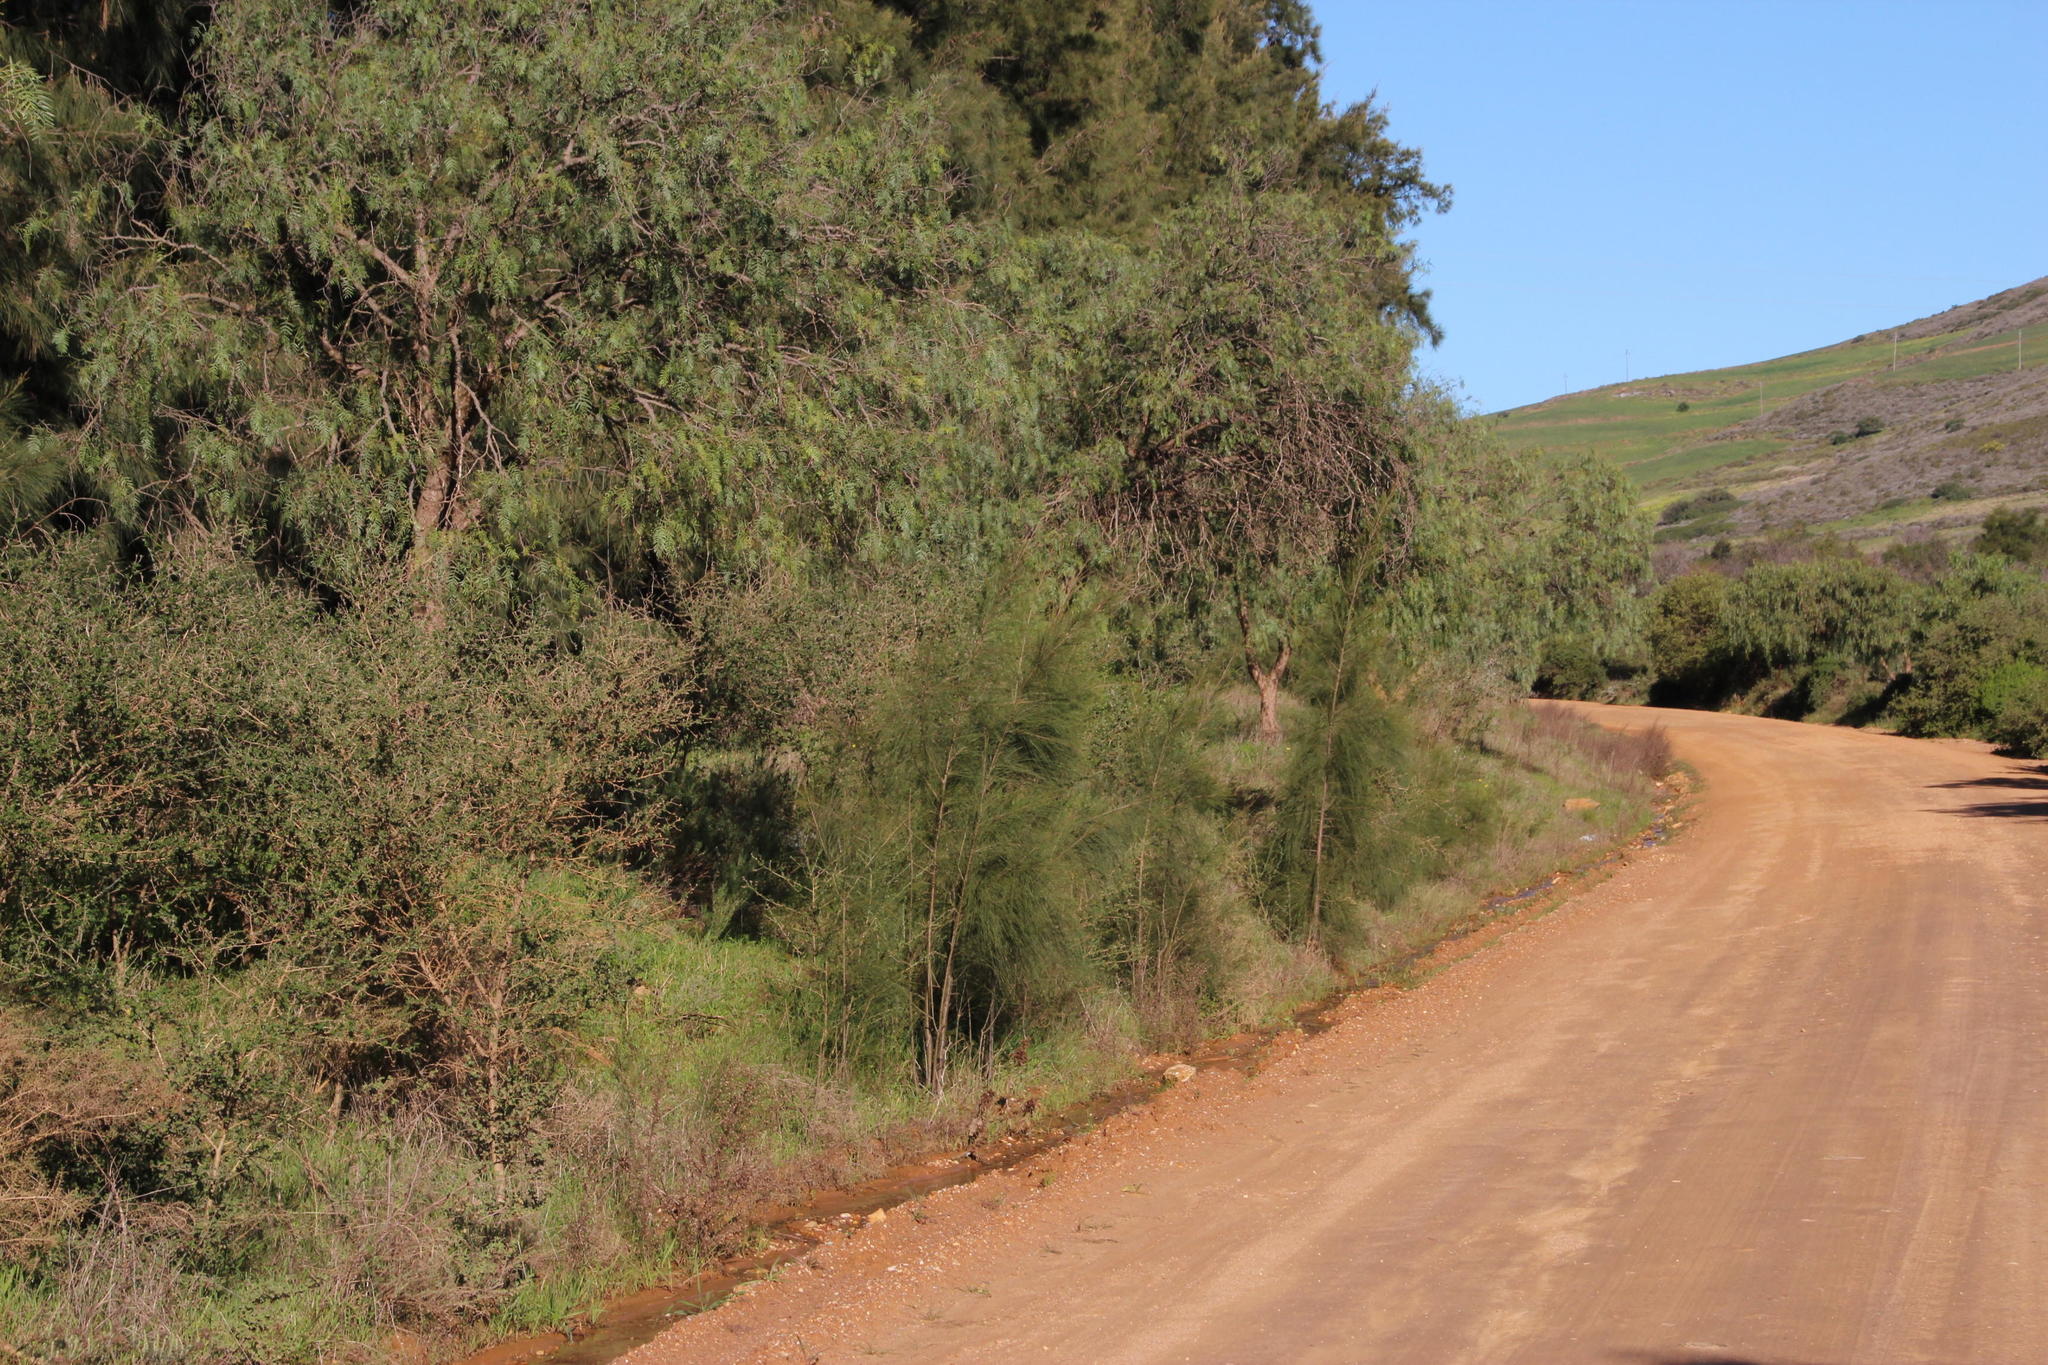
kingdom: Plantae
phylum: Tracheophyta
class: Magnoliopsida
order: Fagales
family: Casuarinaceae
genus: Casuarina
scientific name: Casuarina cunninghamiana
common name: River sheoak
